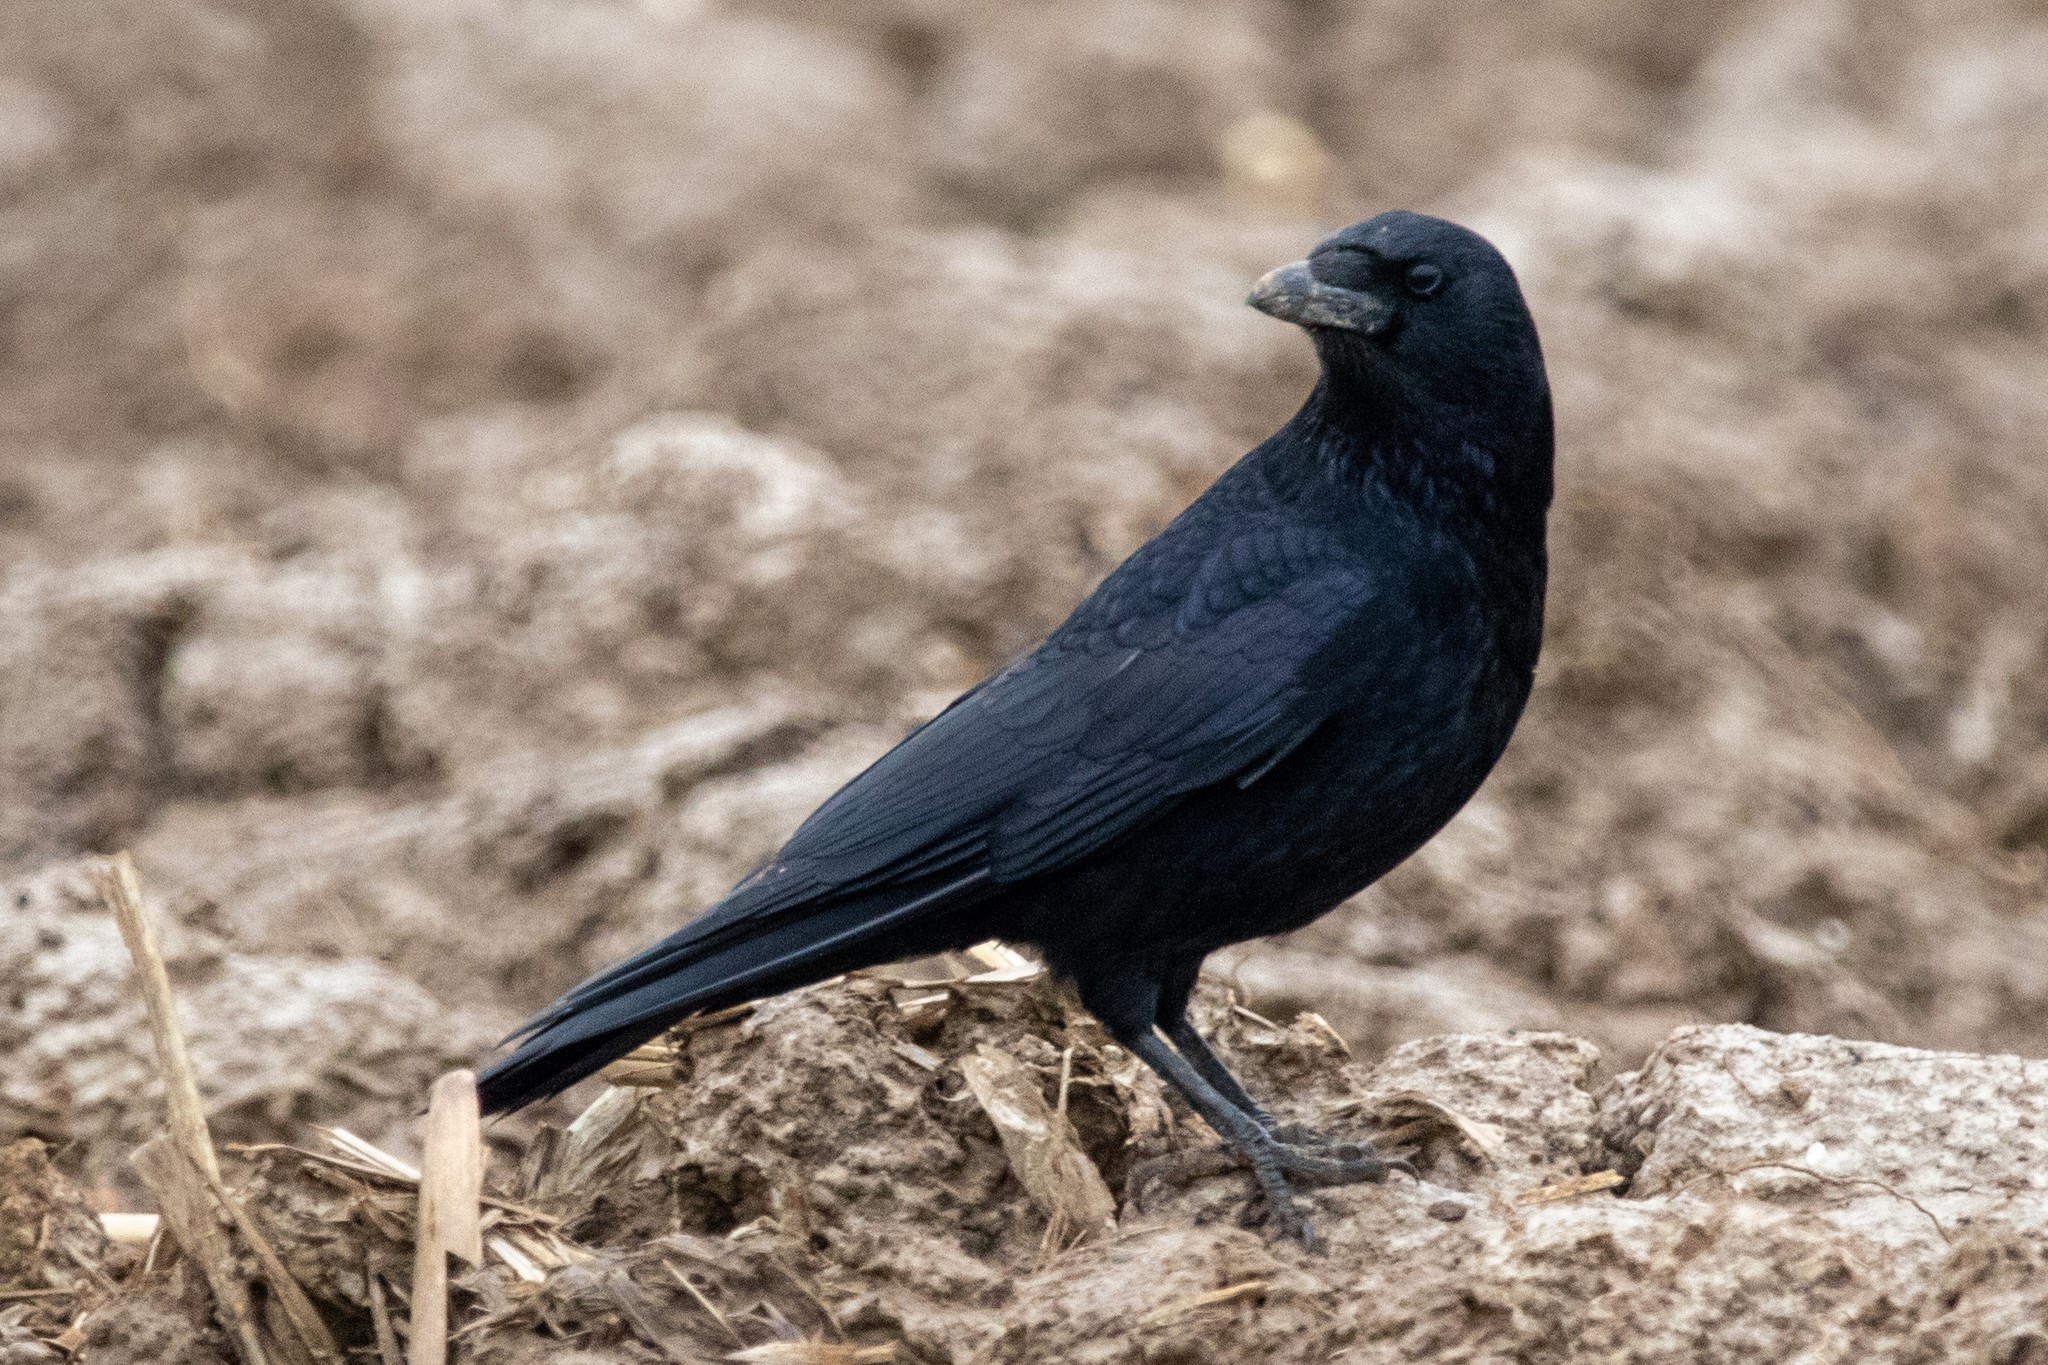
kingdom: Animalia
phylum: Chordata
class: Aves
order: Passeriformes
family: Corvidae
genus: Corvus
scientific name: Corvus corone
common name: Carrion crow
